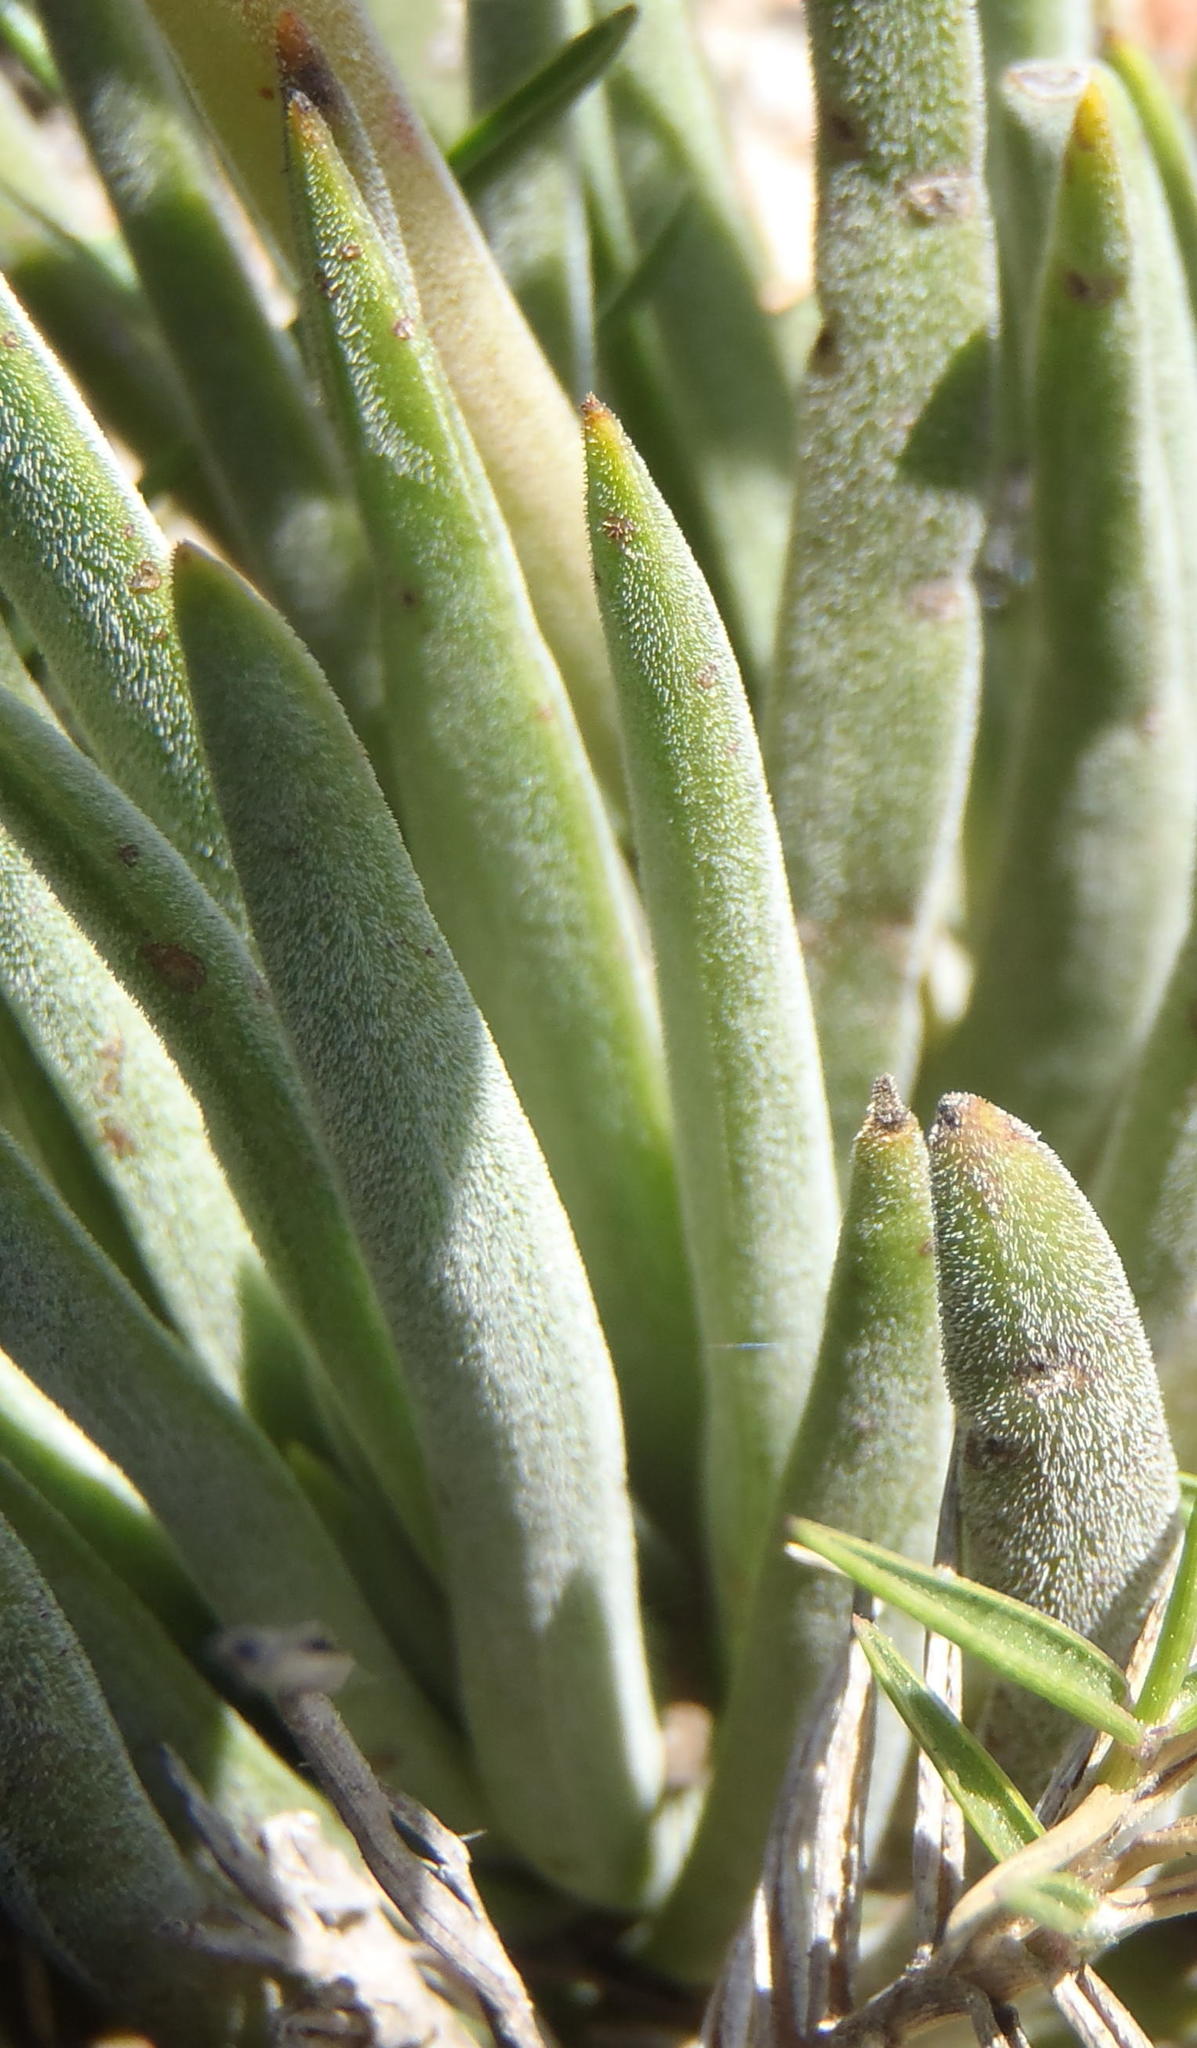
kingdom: Plantae
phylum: Tracheophyta
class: Magnoliopsida
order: Saxifragales
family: Crassulaceae
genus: Crassula
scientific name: Crassula nudicaulis
